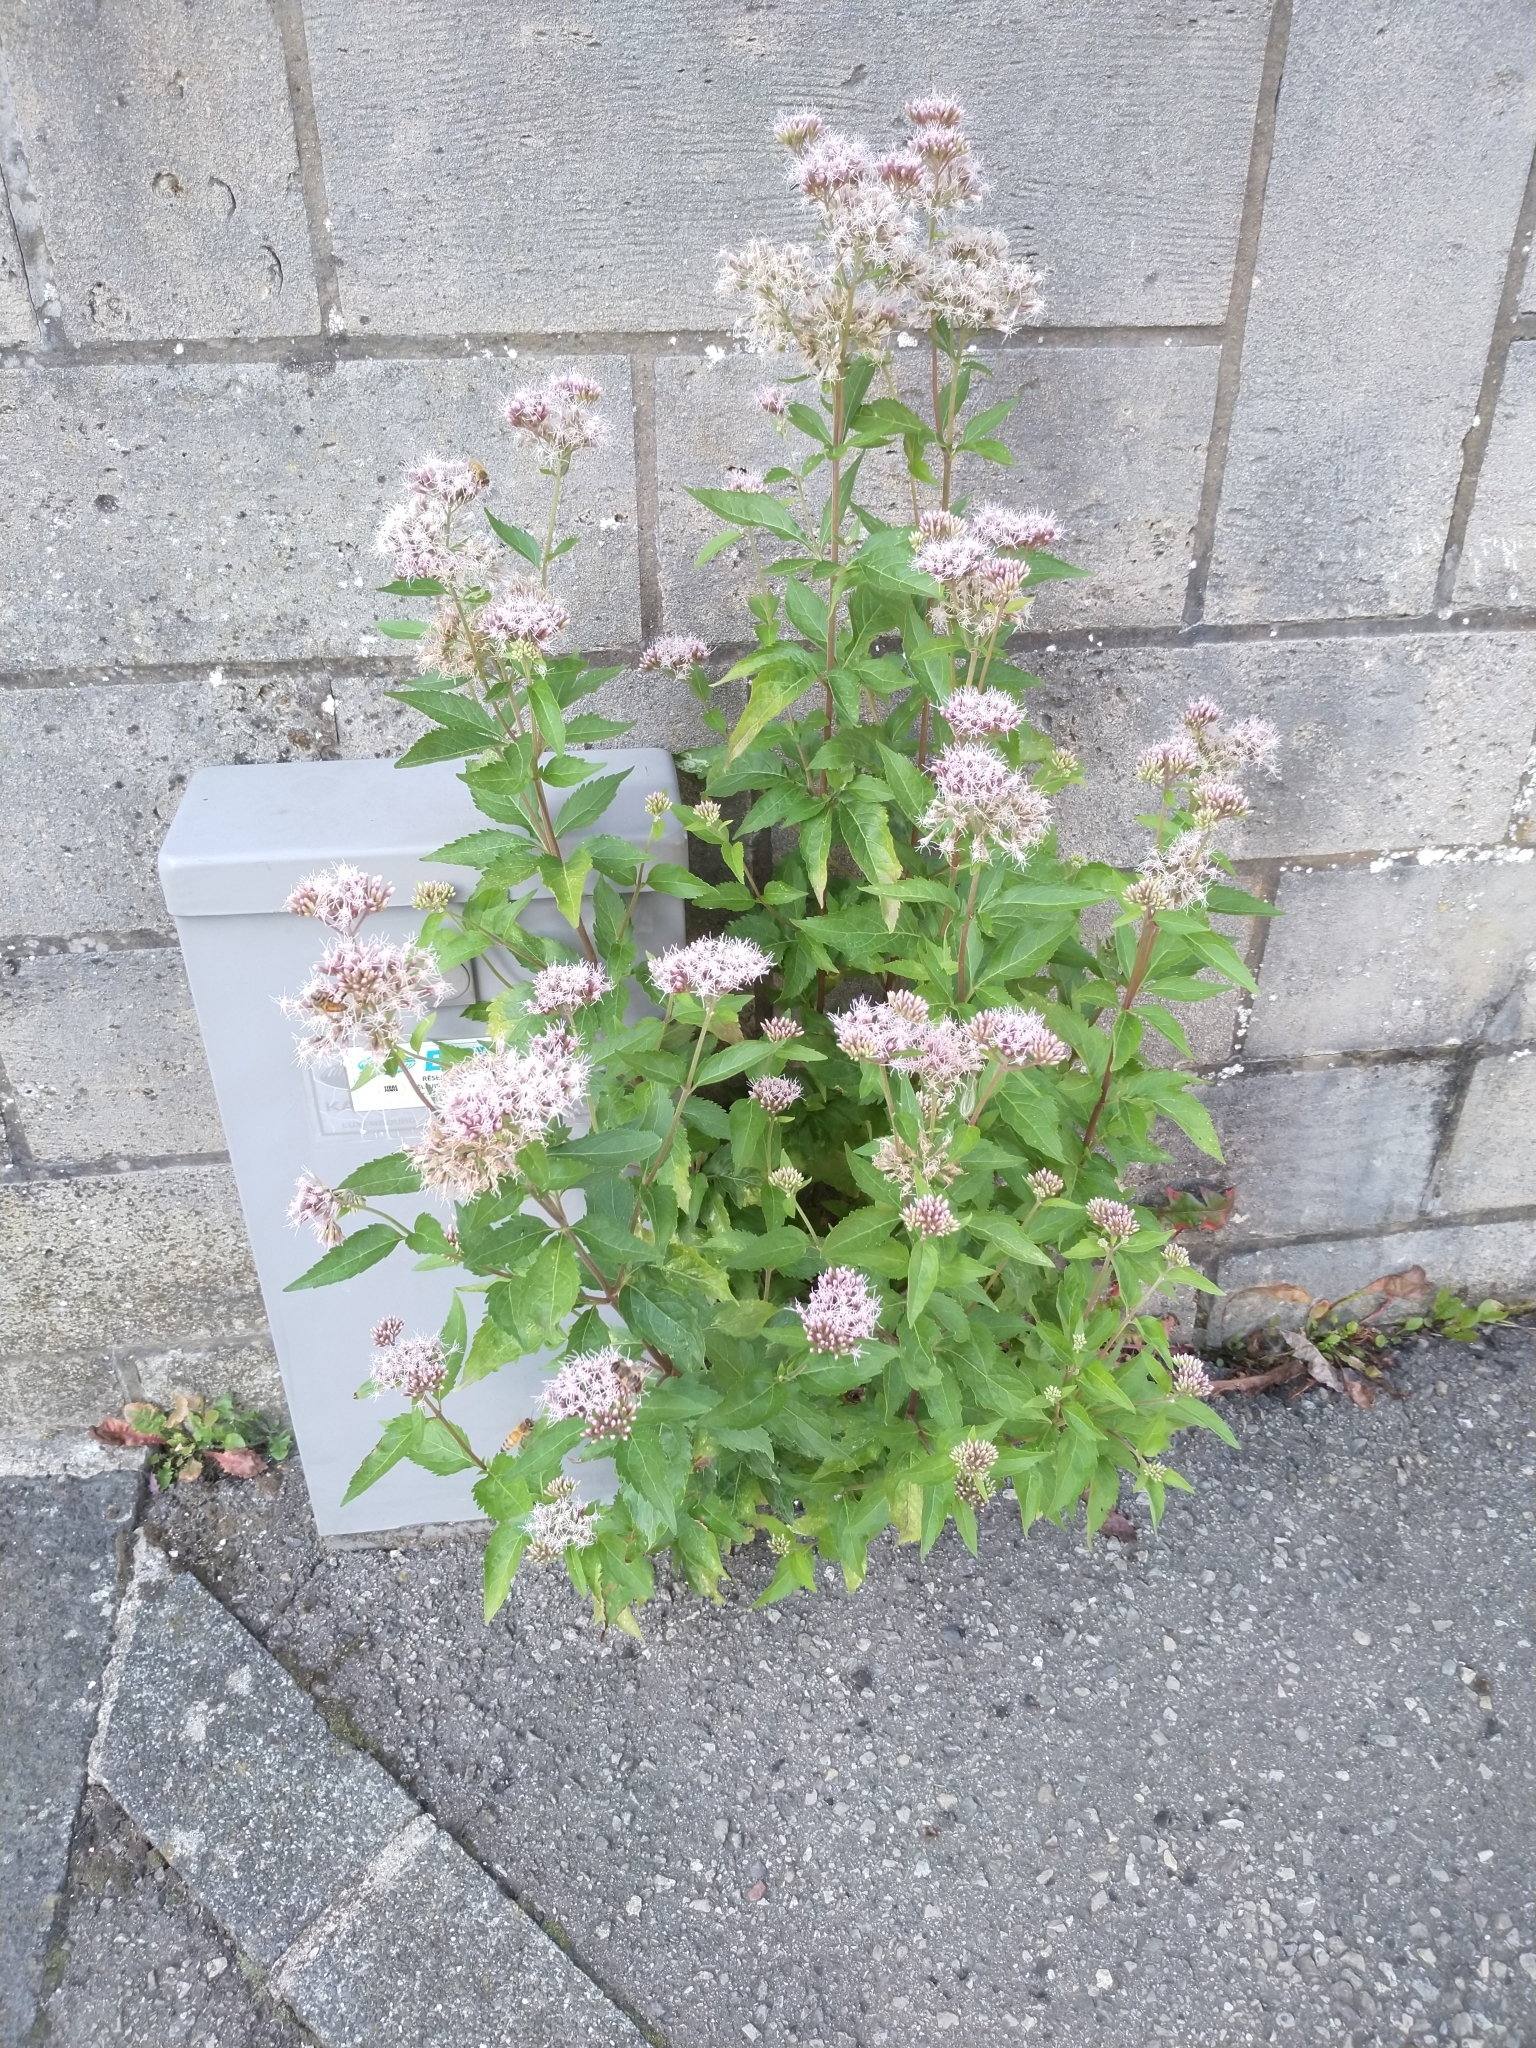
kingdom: Plantae
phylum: Tracheophyta
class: Magnoliopsida
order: Asterales
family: Asteraceae
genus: Eupatorium
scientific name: Eupatorium cannabinum
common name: Hemp-agrimony
